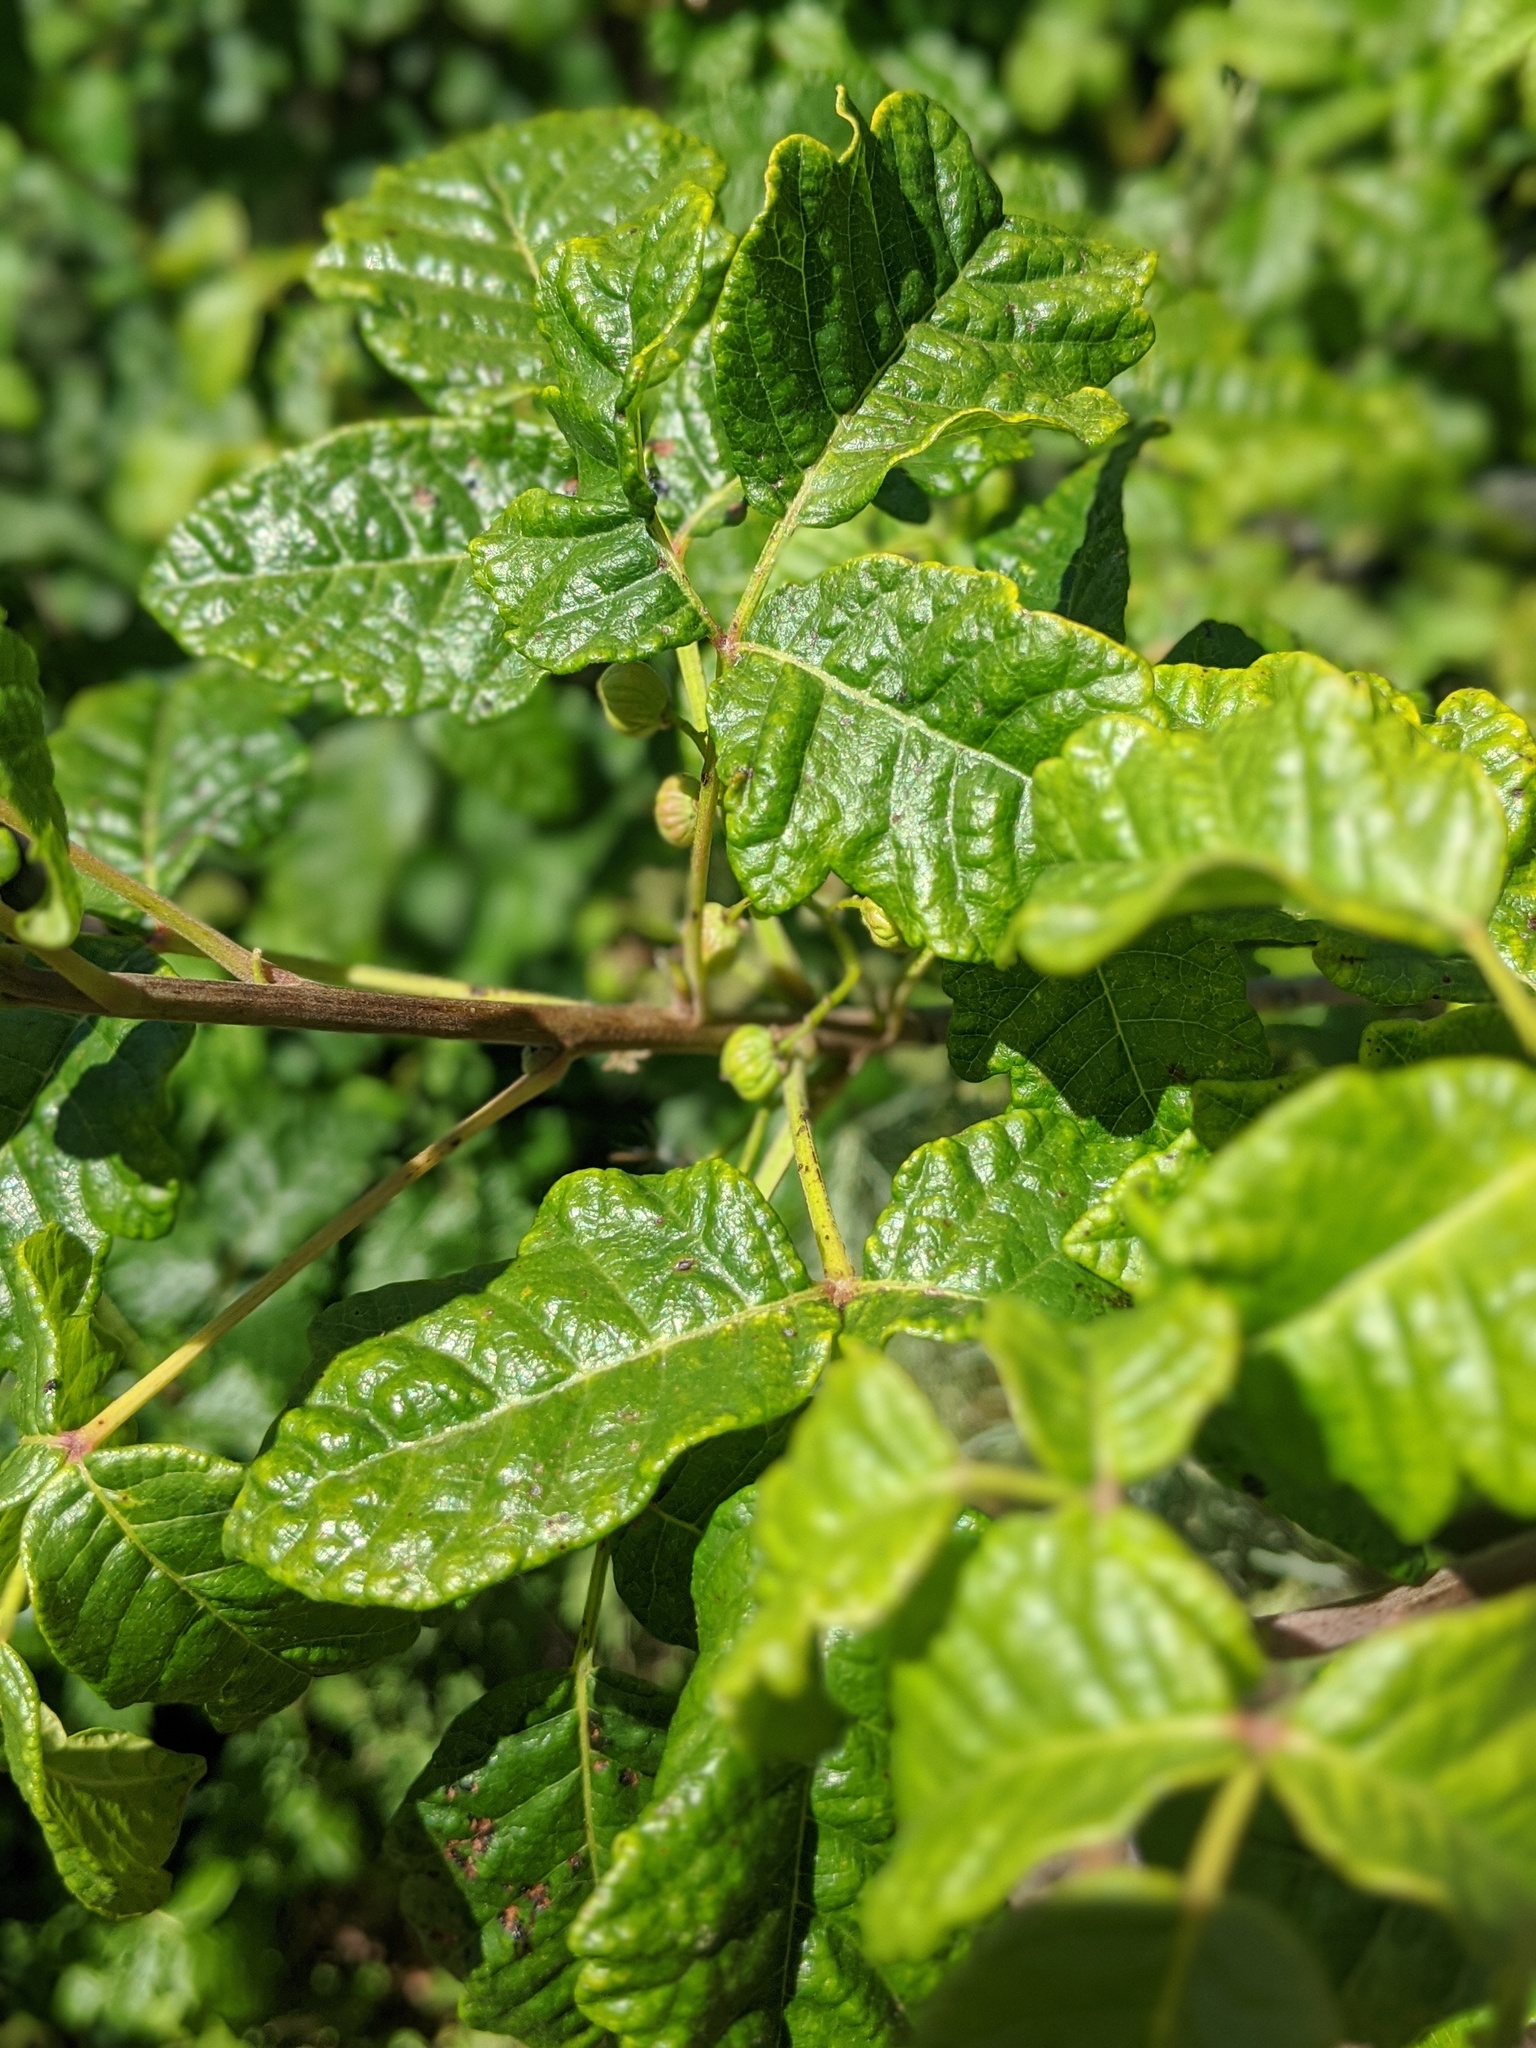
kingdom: Plantae
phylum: Tracheophyta
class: Magnoliopsida
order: Sapindales
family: Anacardiaceae
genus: Toxicodendron
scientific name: Toxicodendron diversilobum
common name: Pacific poison-oak
